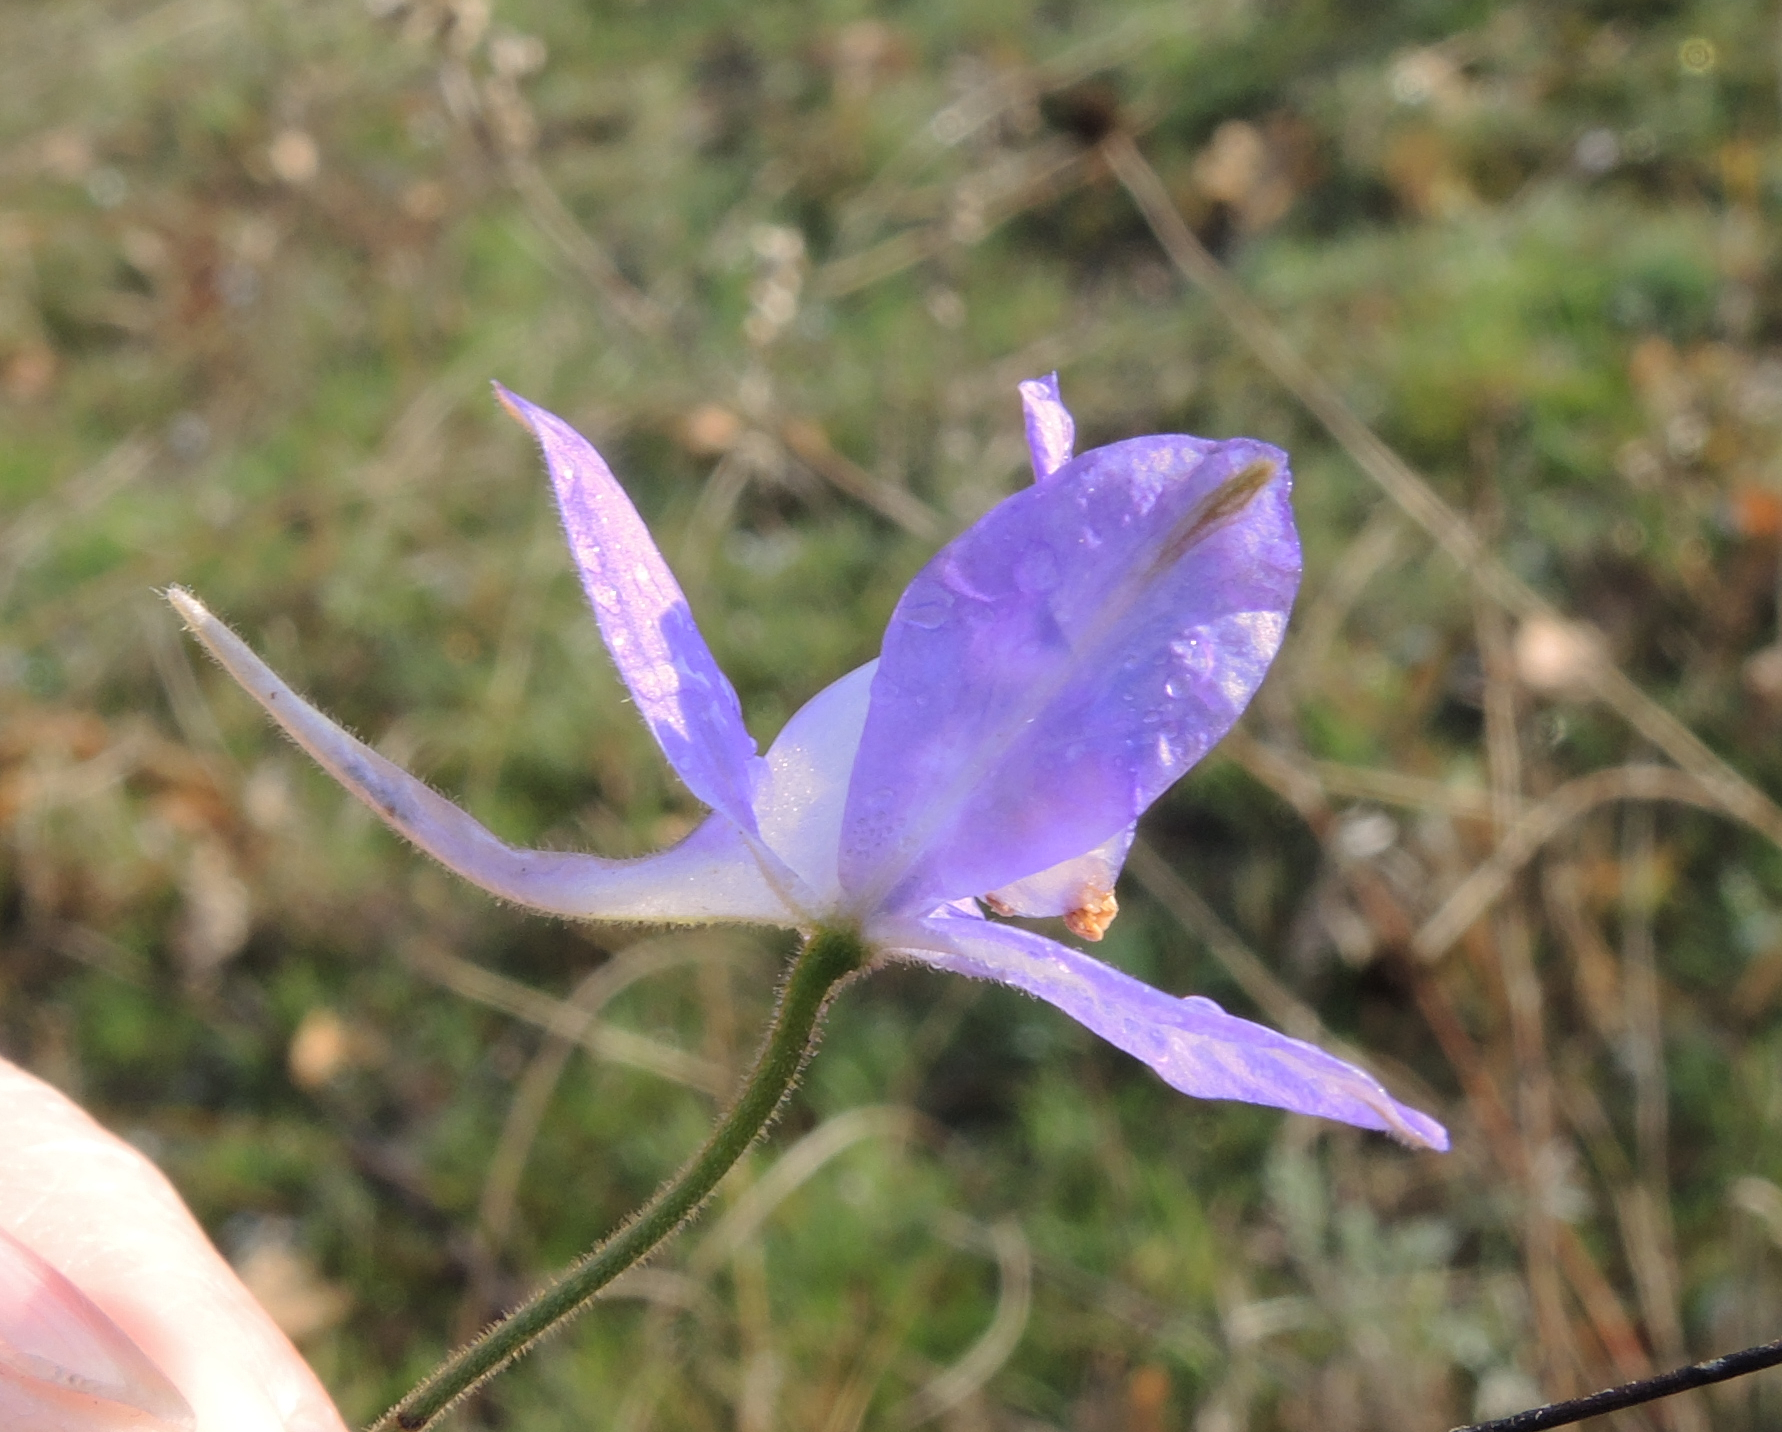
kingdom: Plantae
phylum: Tracheophyta
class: Magnoliopsida
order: Ranunculales
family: Ranunculaceae
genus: Delphinium
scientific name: Delphinium consolida
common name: Branching larkspur
